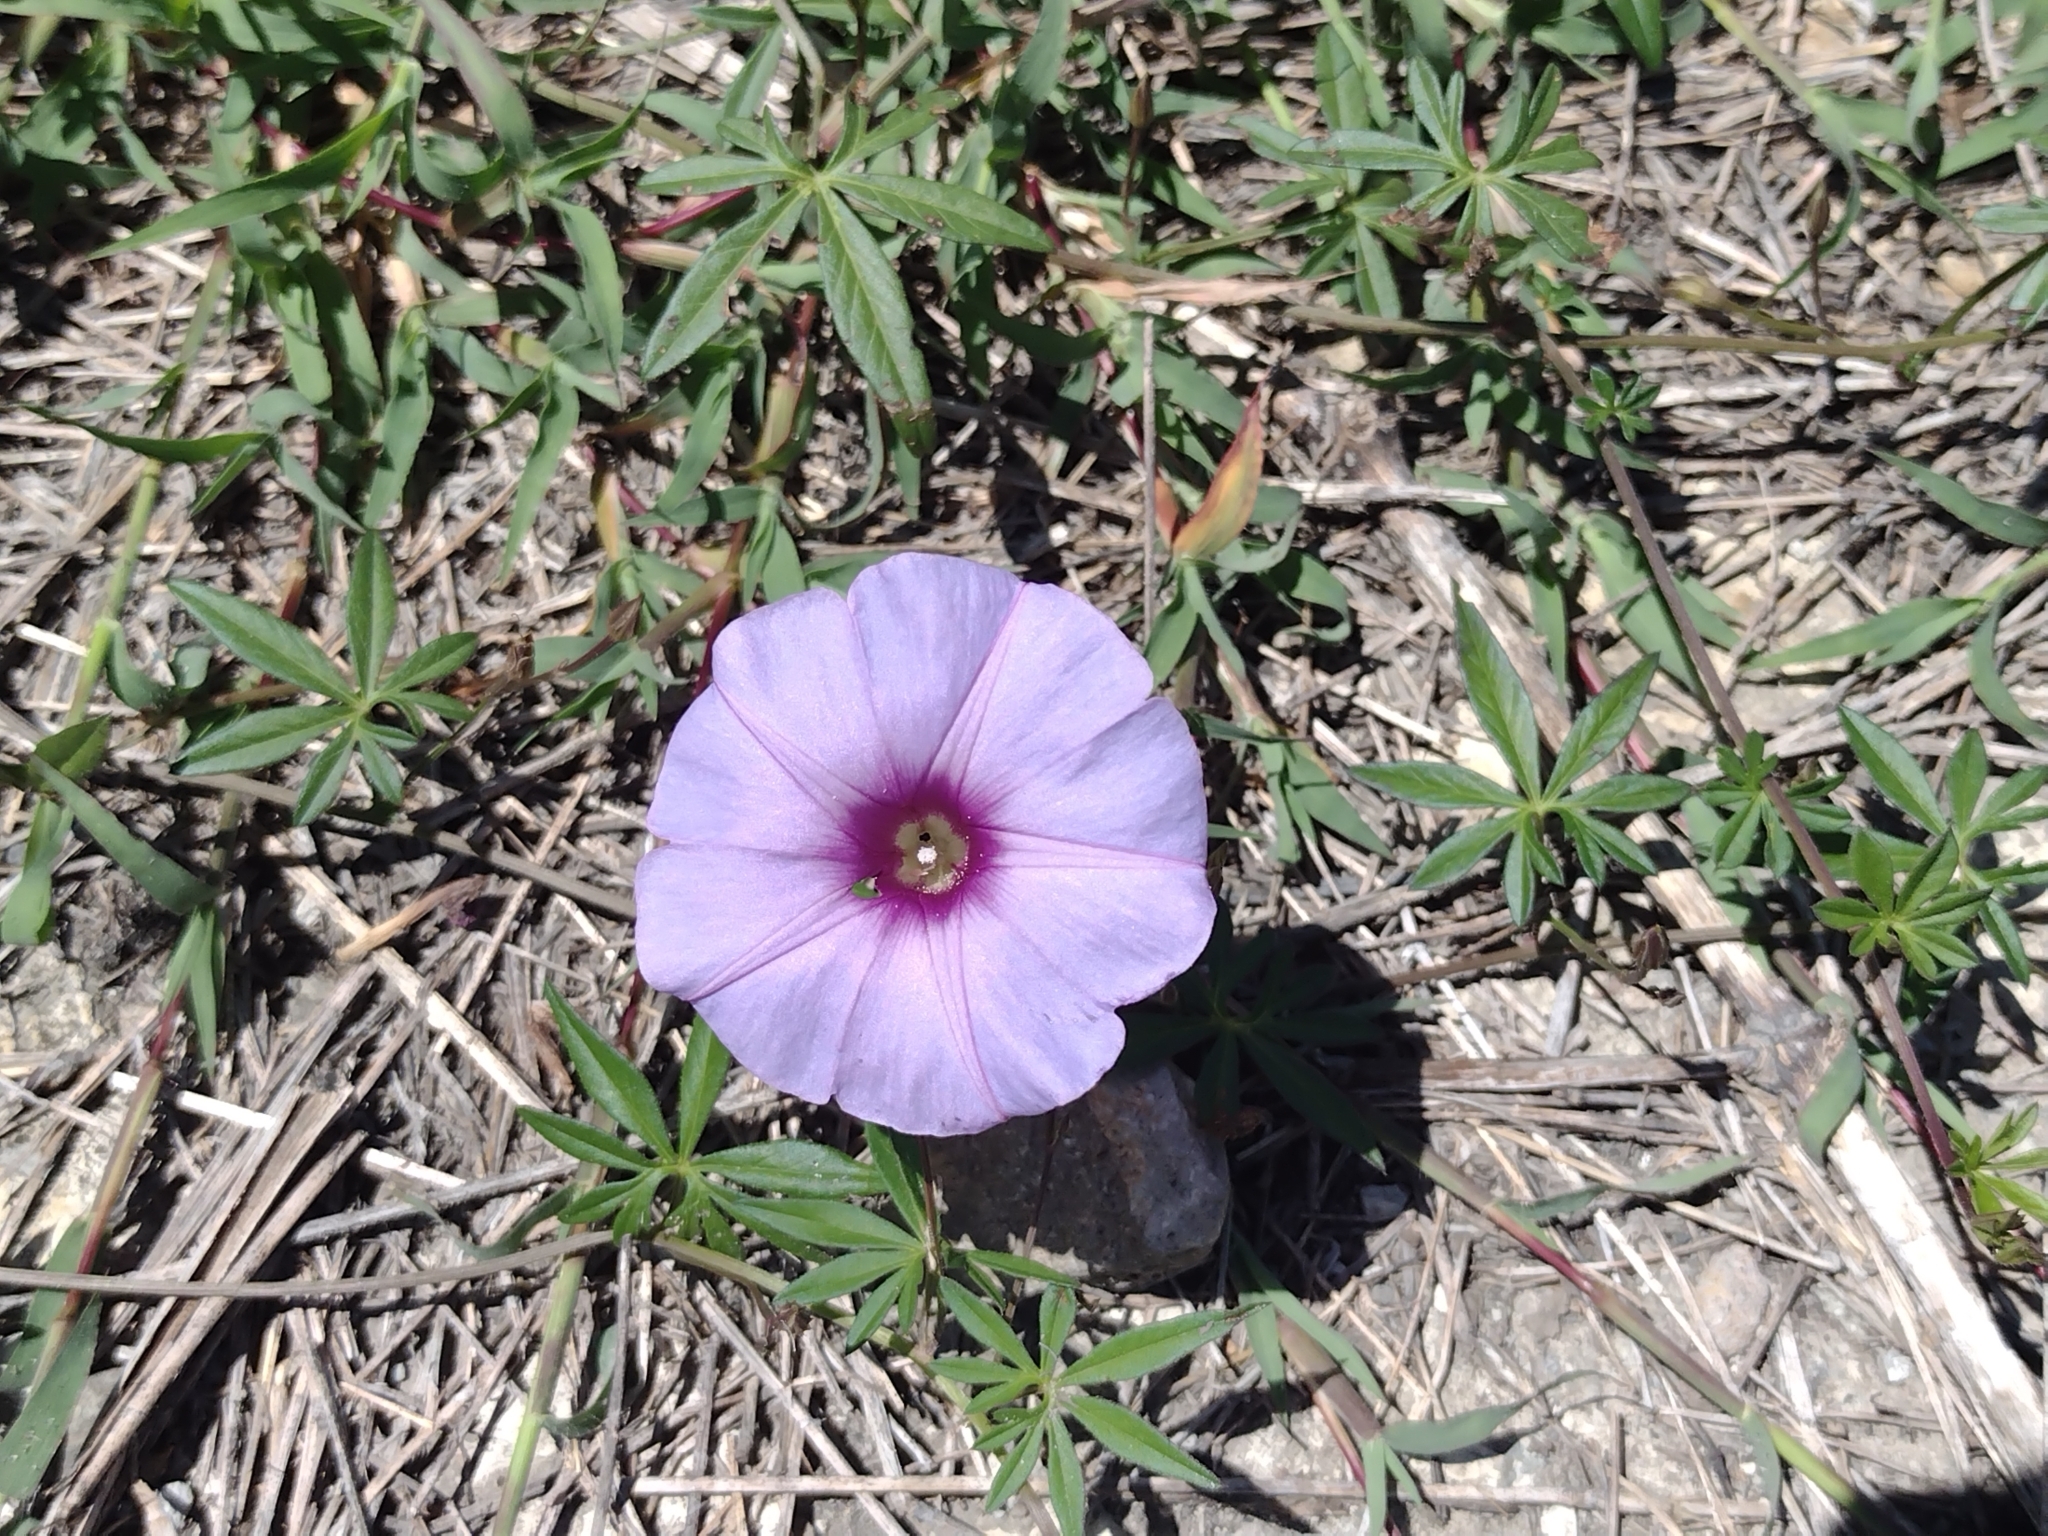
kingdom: Plantae
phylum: Tracheophyta
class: Magnoliopsida
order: Solanales
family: Convolvulaceae
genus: Ipomoea
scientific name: Ipomoea ternifolia
